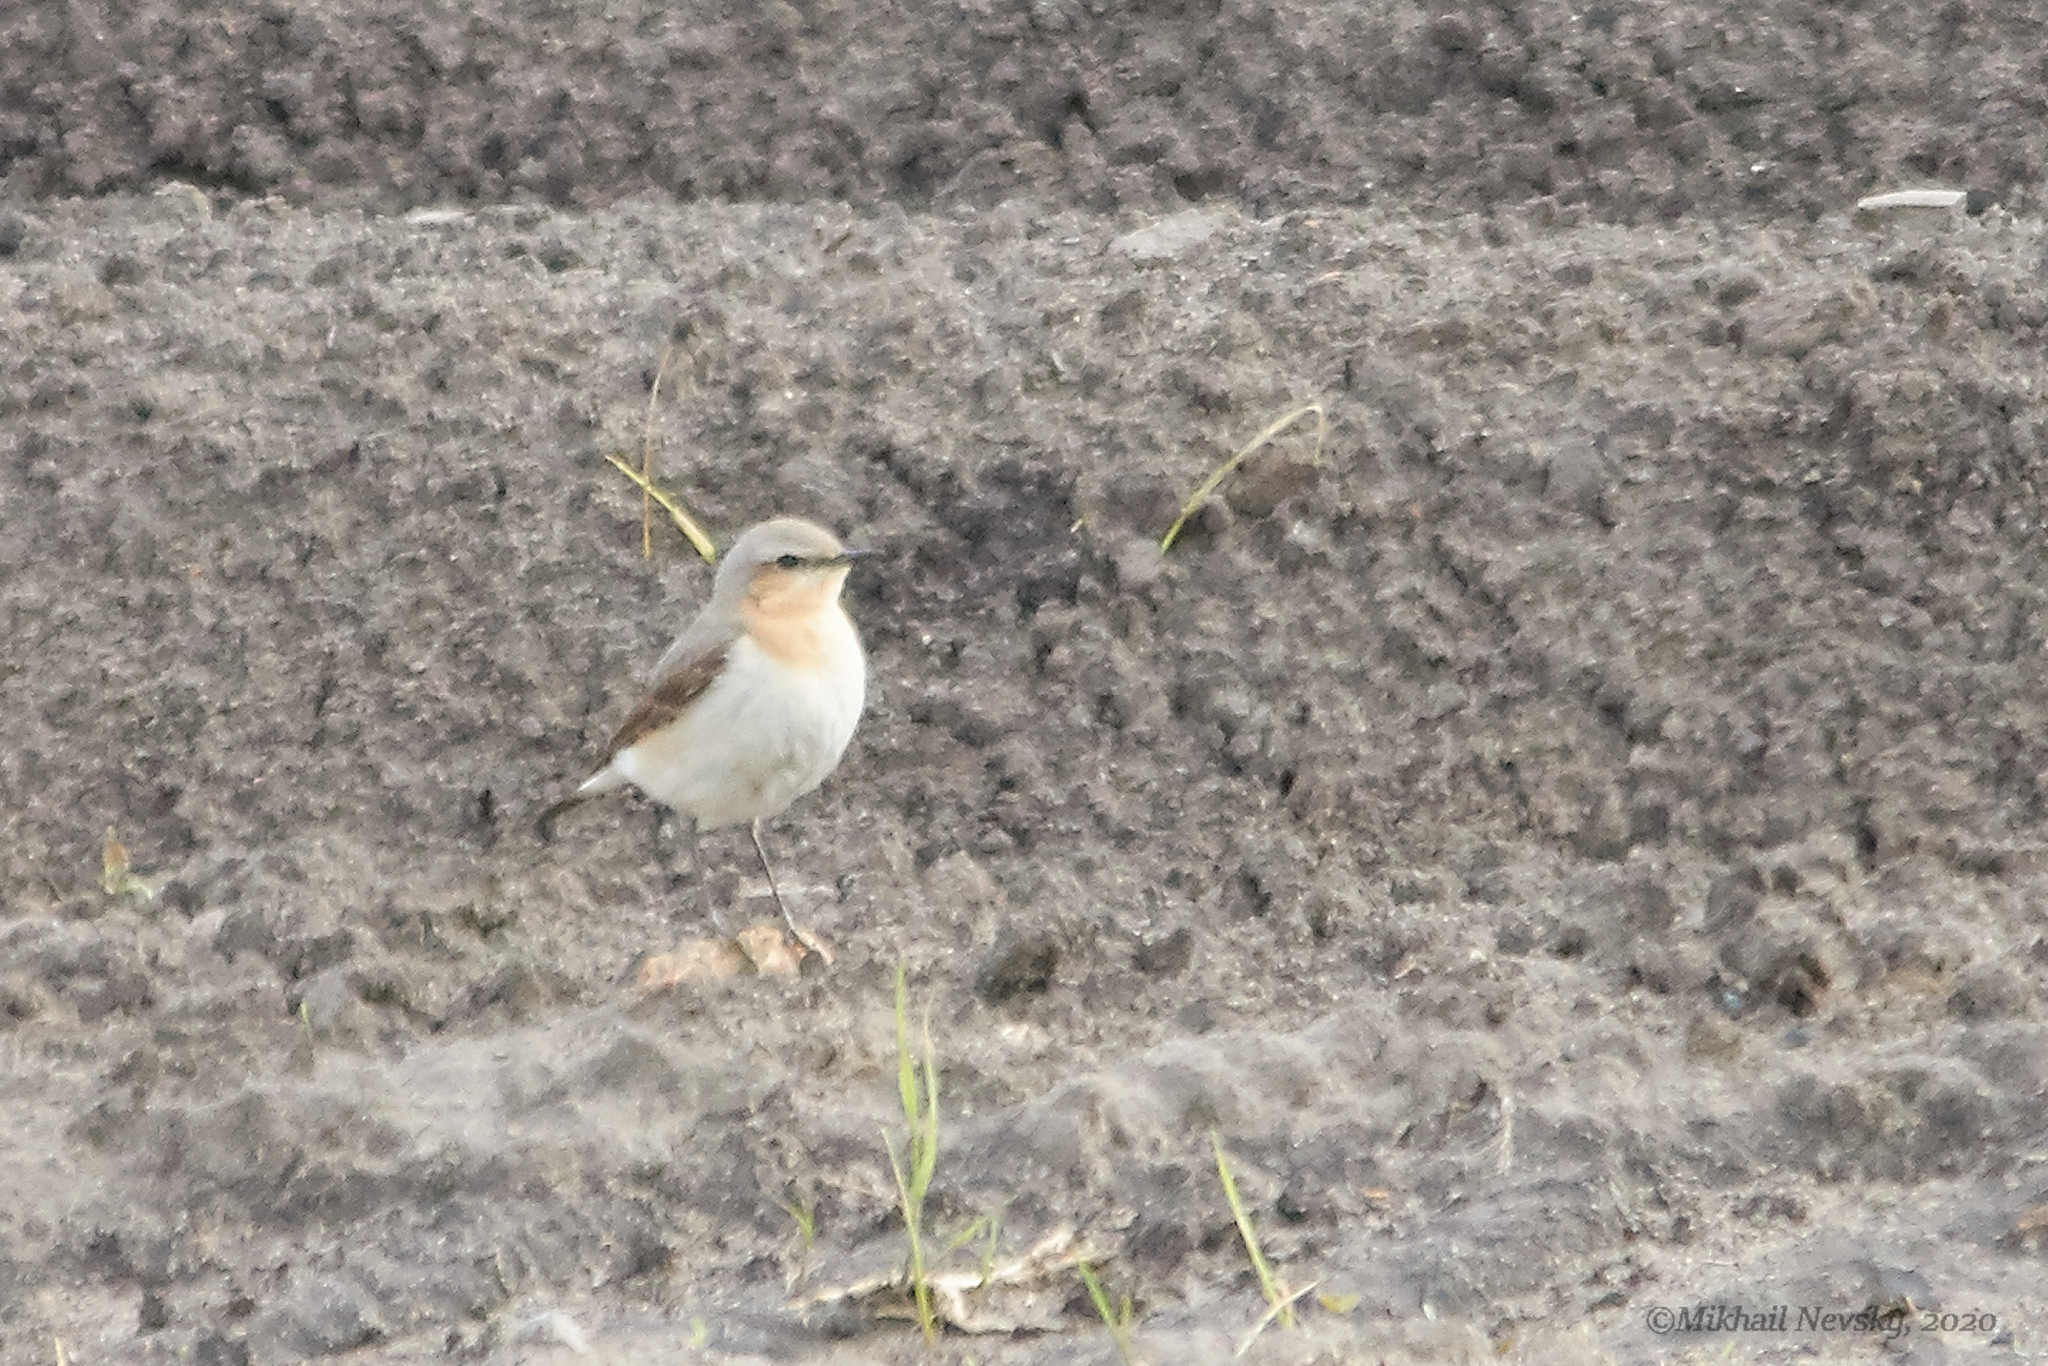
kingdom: Animalia
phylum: Chordata
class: Aves
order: Passeriformes
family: Muscicapidae
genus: Oenanthe
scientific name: Oenanthe oenanthe
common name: Northern wheatear
